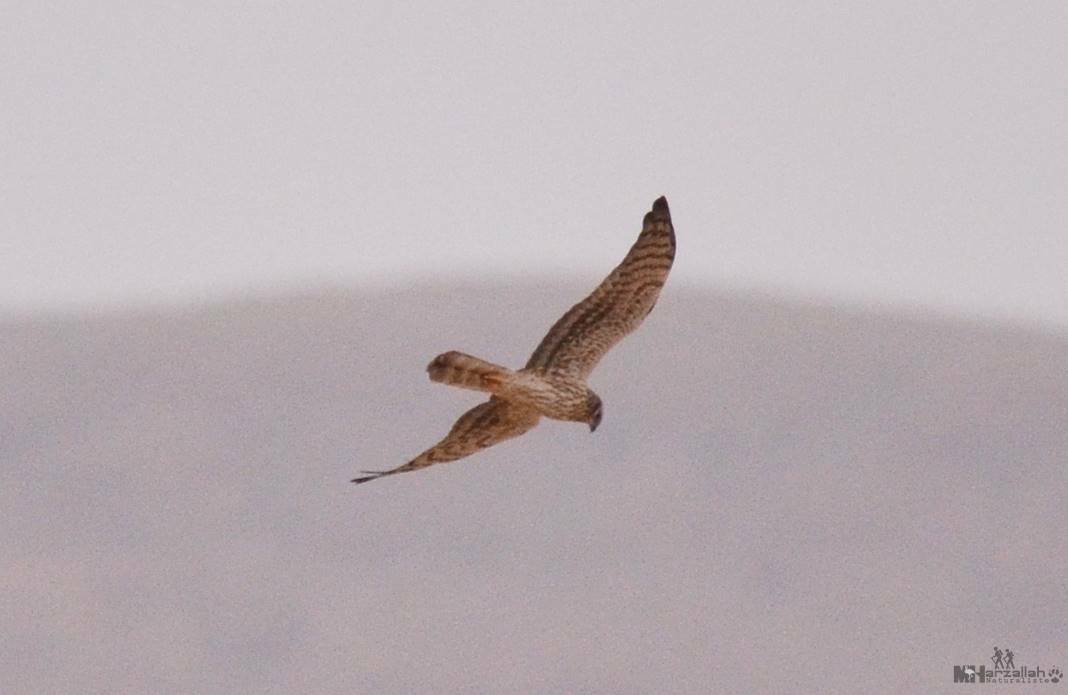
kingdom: Animalia
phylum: Chordata
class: Aves
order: Accipitriformes
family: Accipitridae
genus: Circus
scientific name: Circus pygargus
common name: Montagu's harrier
